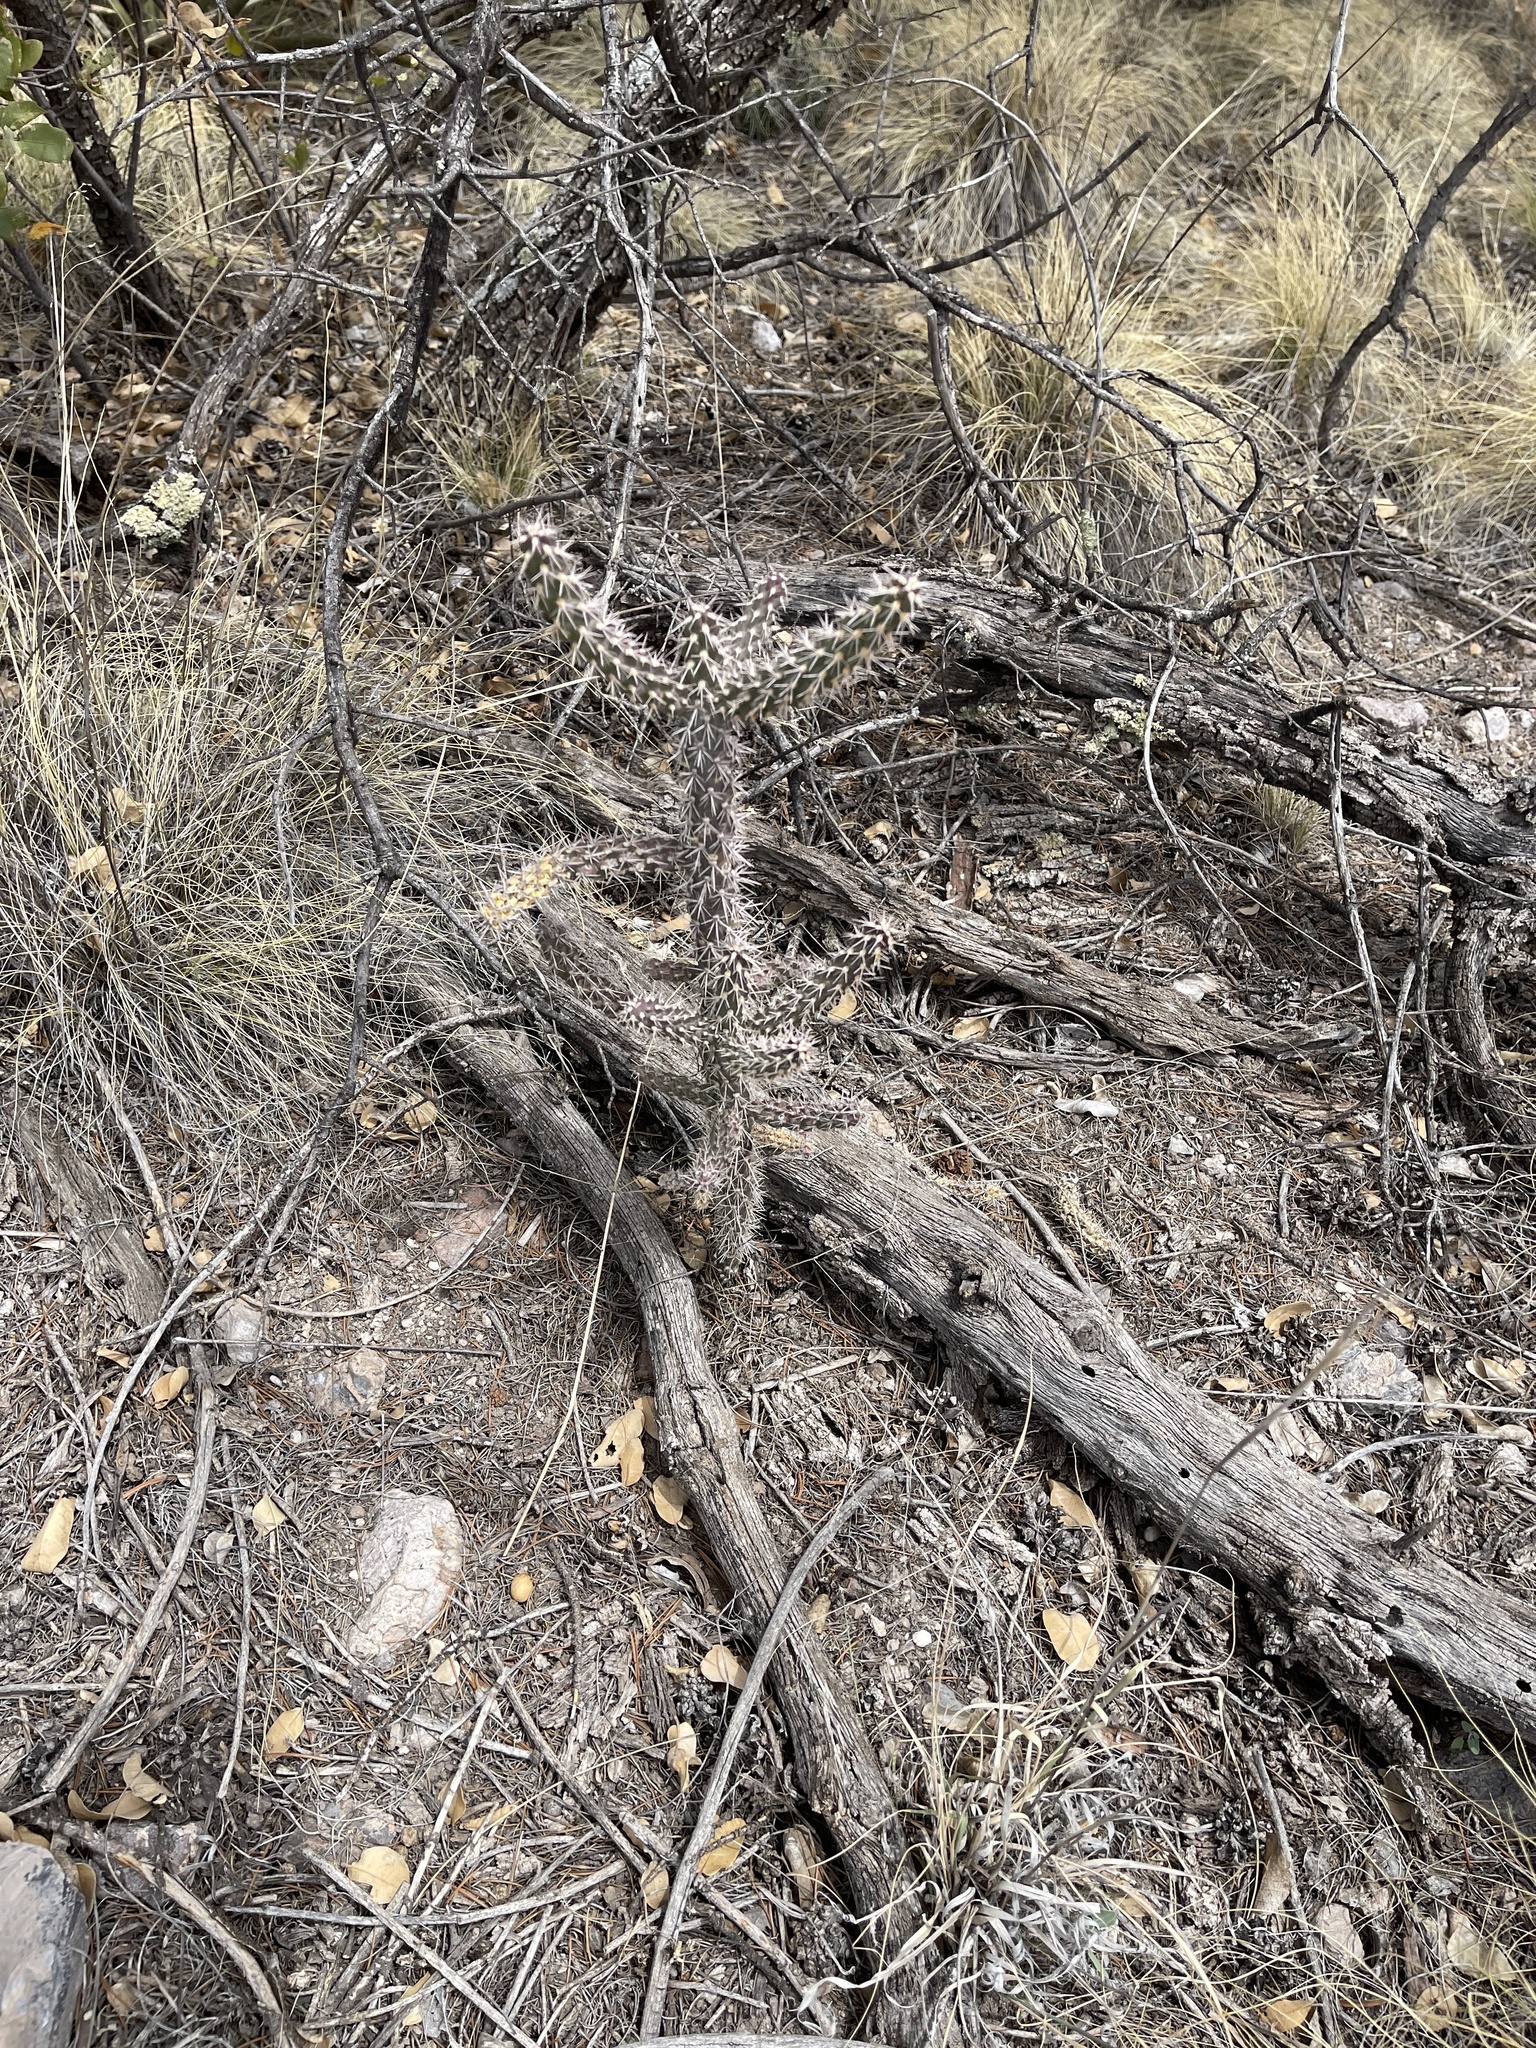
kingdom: Plantae
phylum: Tracheophyta
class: Magnoliopsida
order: Caryophyllales
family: Cactaceae
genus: Cylindropuntia
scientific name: Cylindropuntia imbricata
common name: Candelabrum cactus
